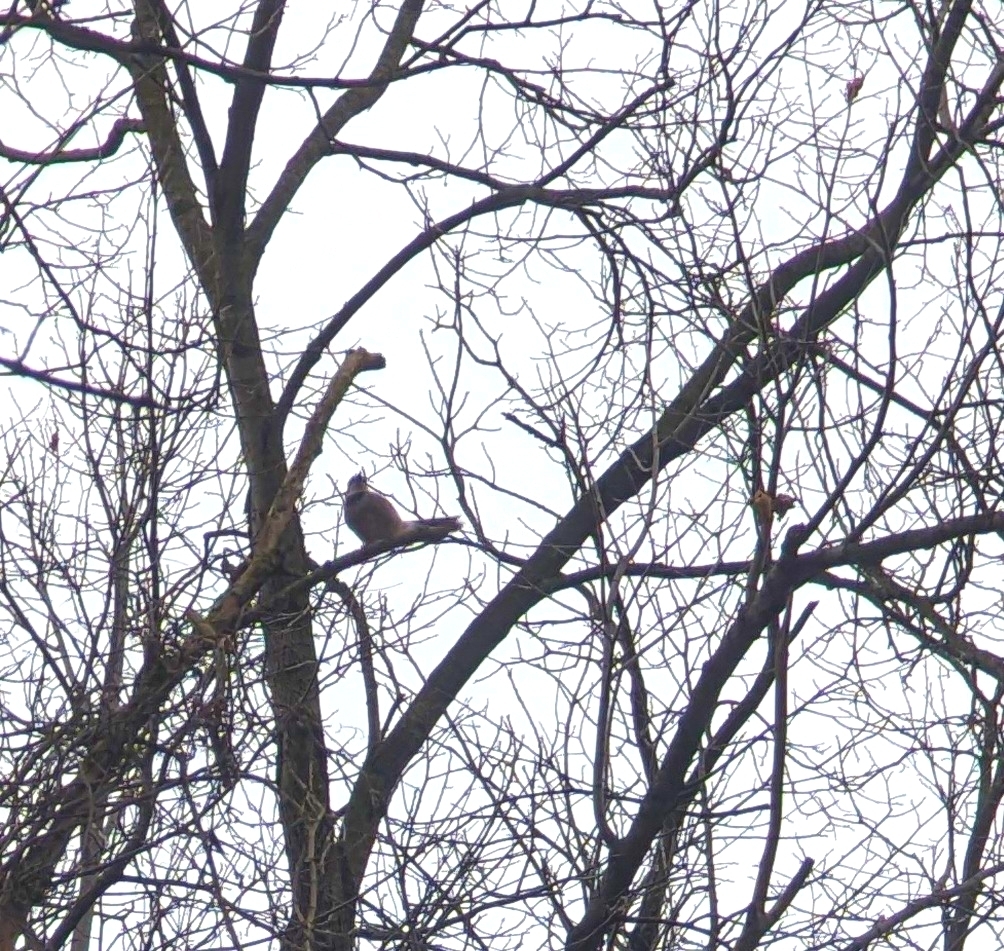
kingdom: Animalia
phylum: Chordata
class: Aves
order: Passeriformes
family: Corvidae
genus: Cyanocitta
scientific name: Cyanocitta cristata
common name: Blue jay
